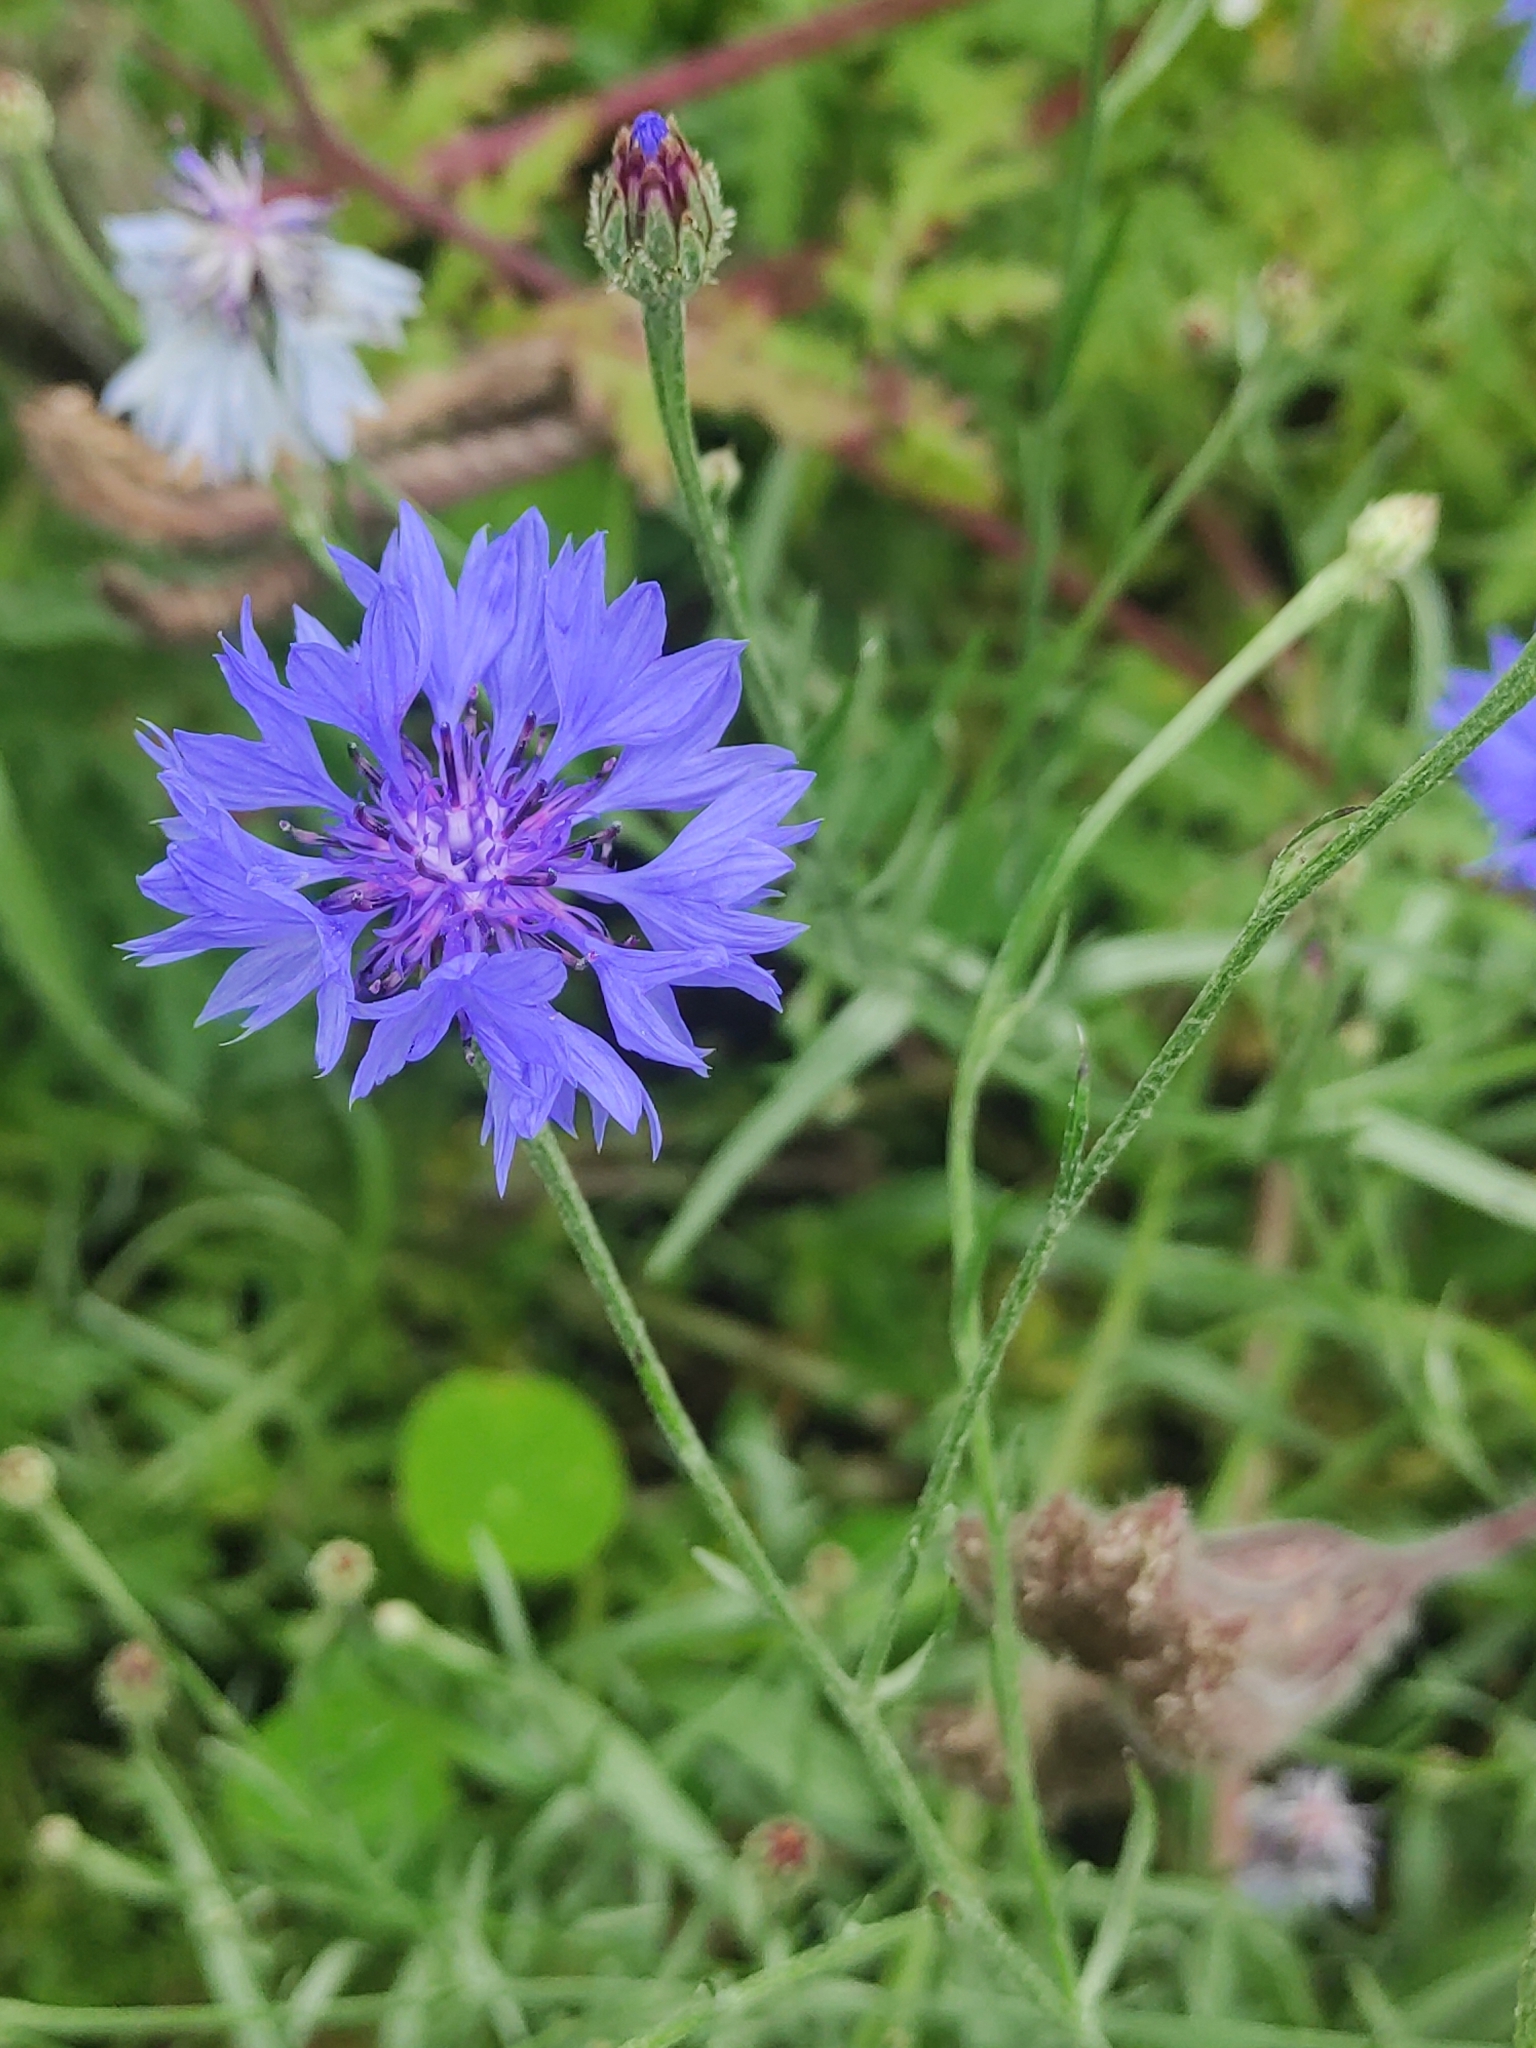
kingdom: Plantae
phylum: Tracheophyta
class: Magnoliopsida
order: Asterales
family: Asteraceae
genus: Centaurea
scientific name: Centaurea cyanus
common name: Cornflower
